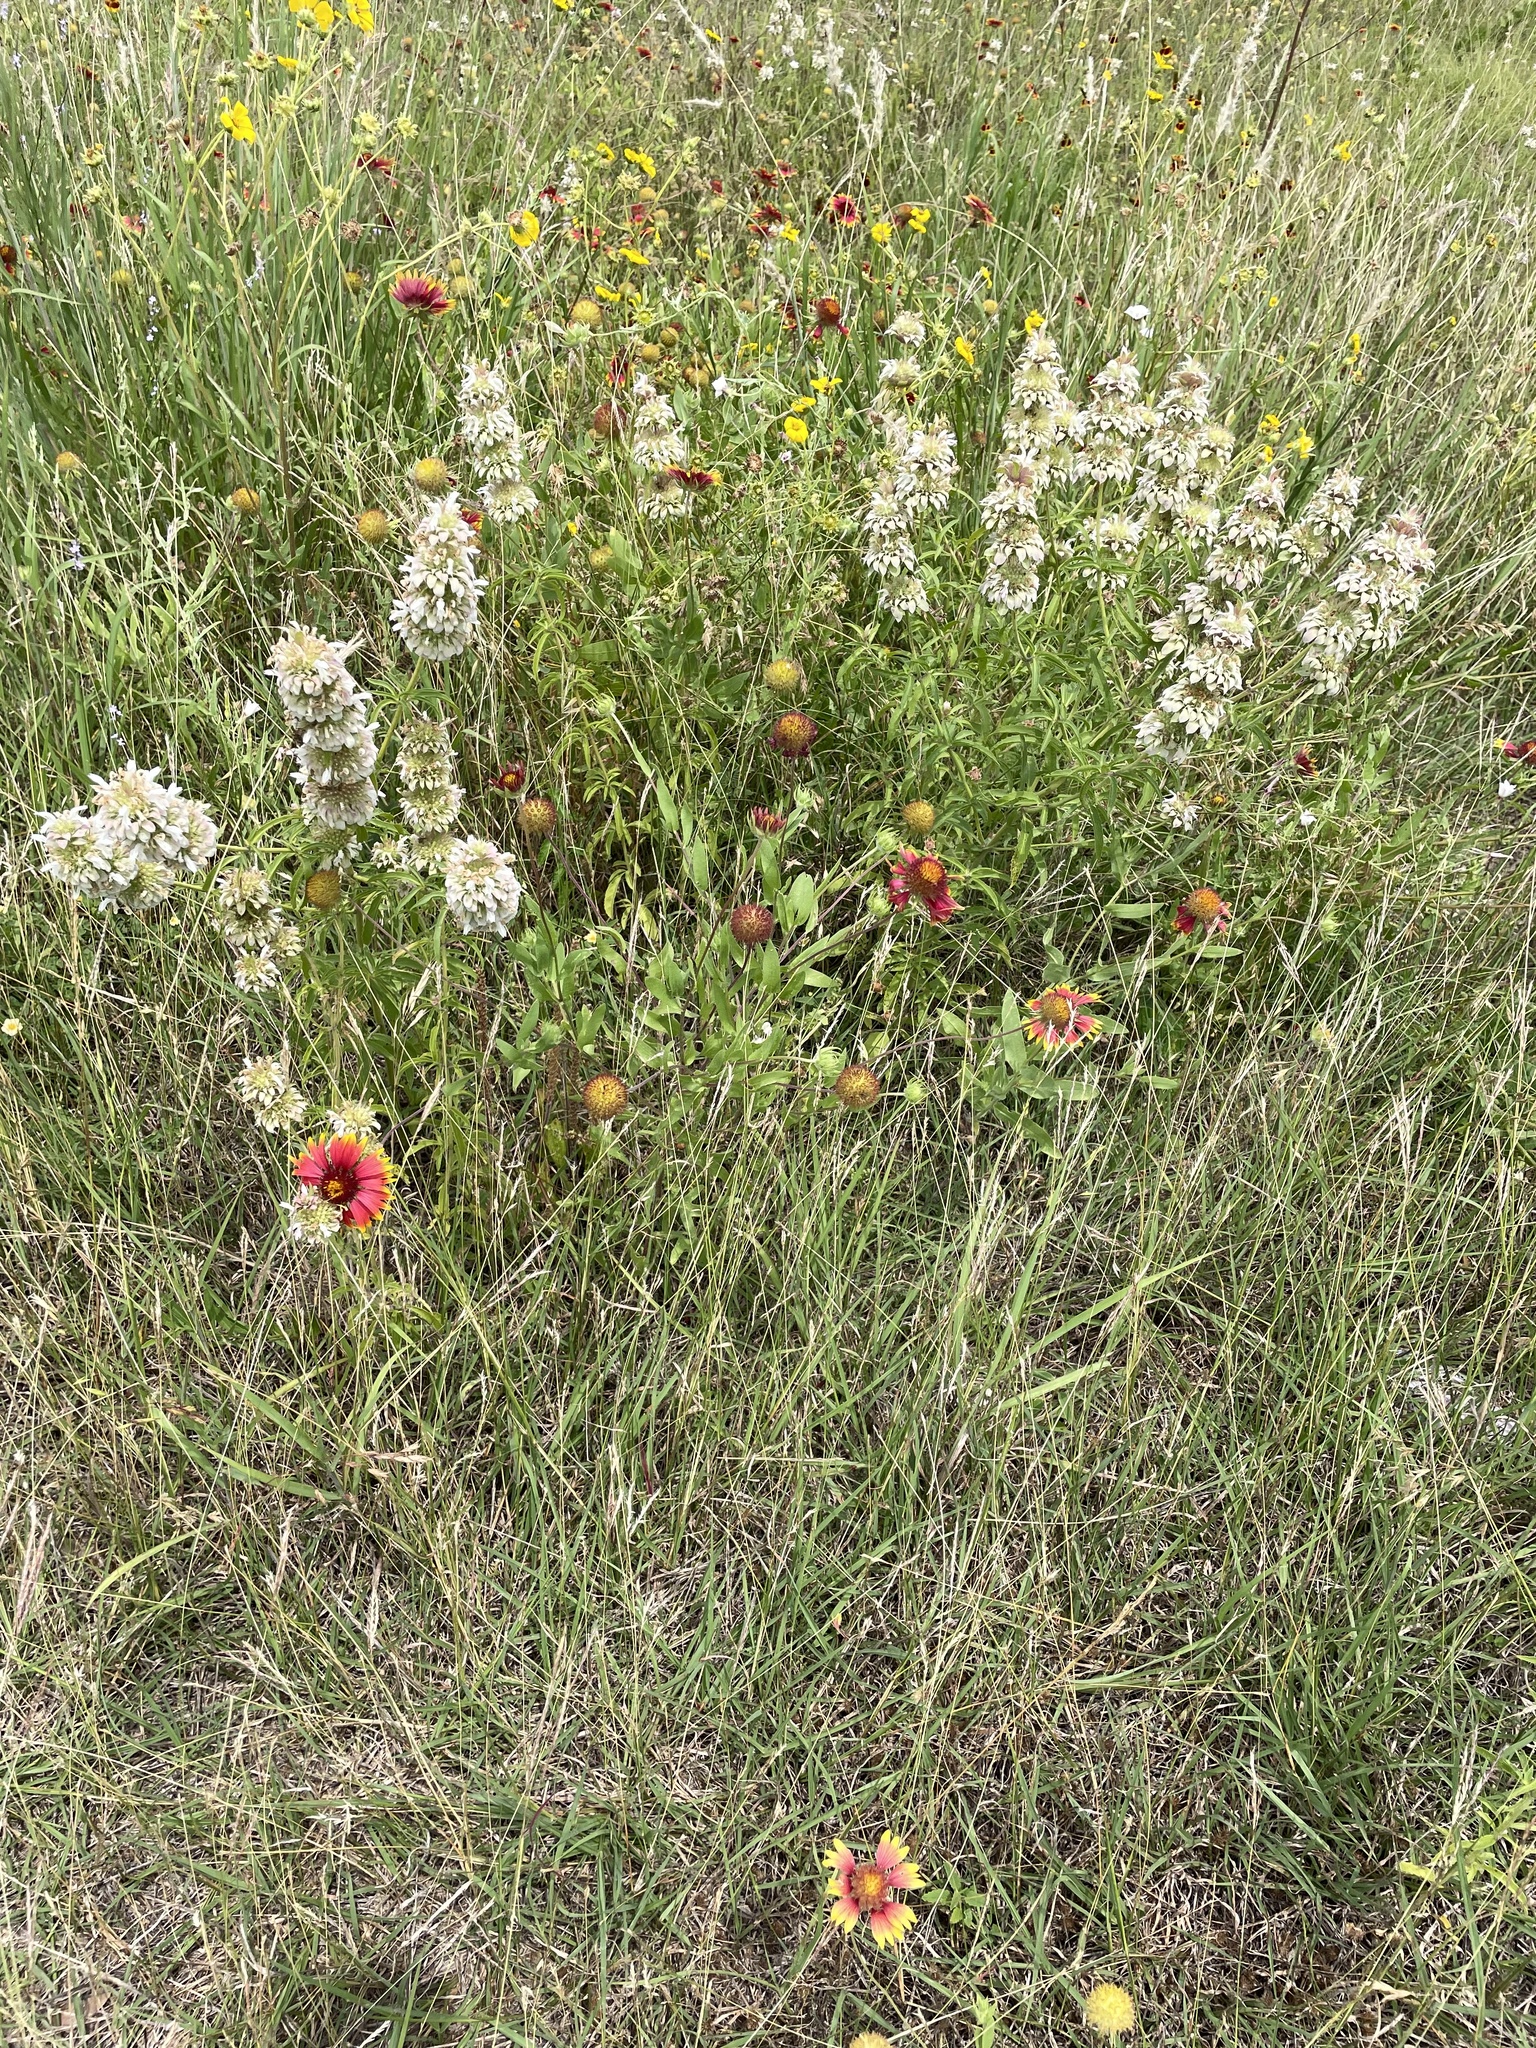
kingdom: Plantae
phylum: Tracheophyta
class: Magnoliopsida
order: Lamiales
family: Lamiaceae
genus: Monarda
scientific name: Monarda citriodora
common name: Lemon beebalm
